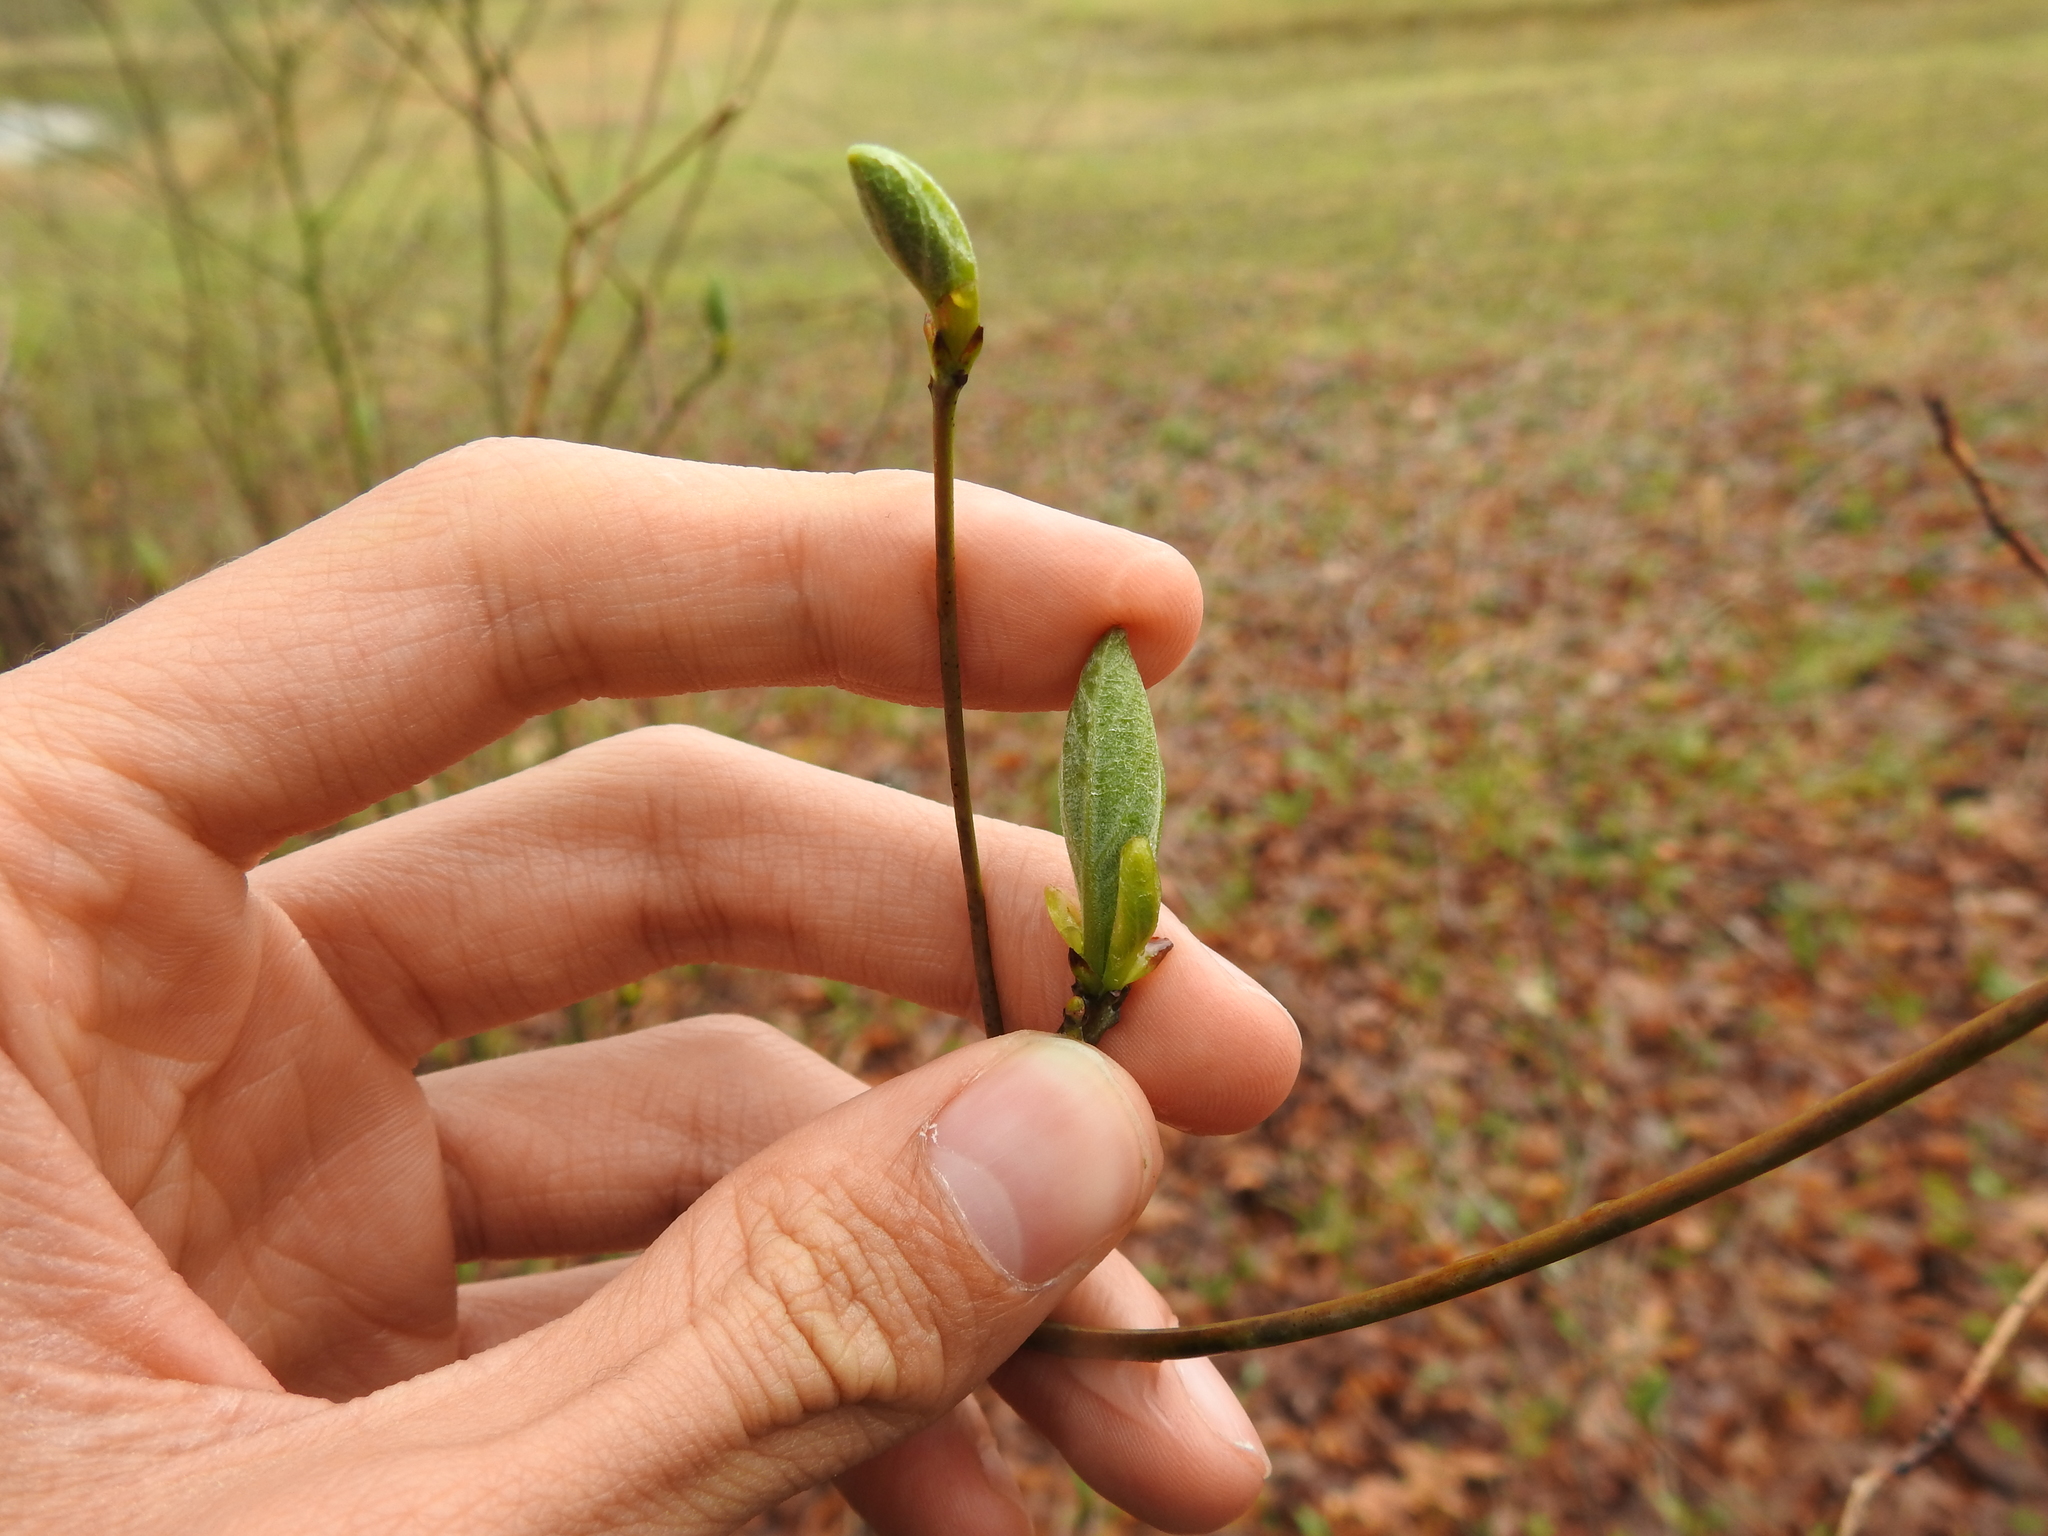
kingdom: Plantae
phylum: Tracheophyta
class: Magnoliopsida
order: Laurales
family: Lauraceae
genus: Sassafras
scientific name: Sassafras albidum
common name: Sassafras
